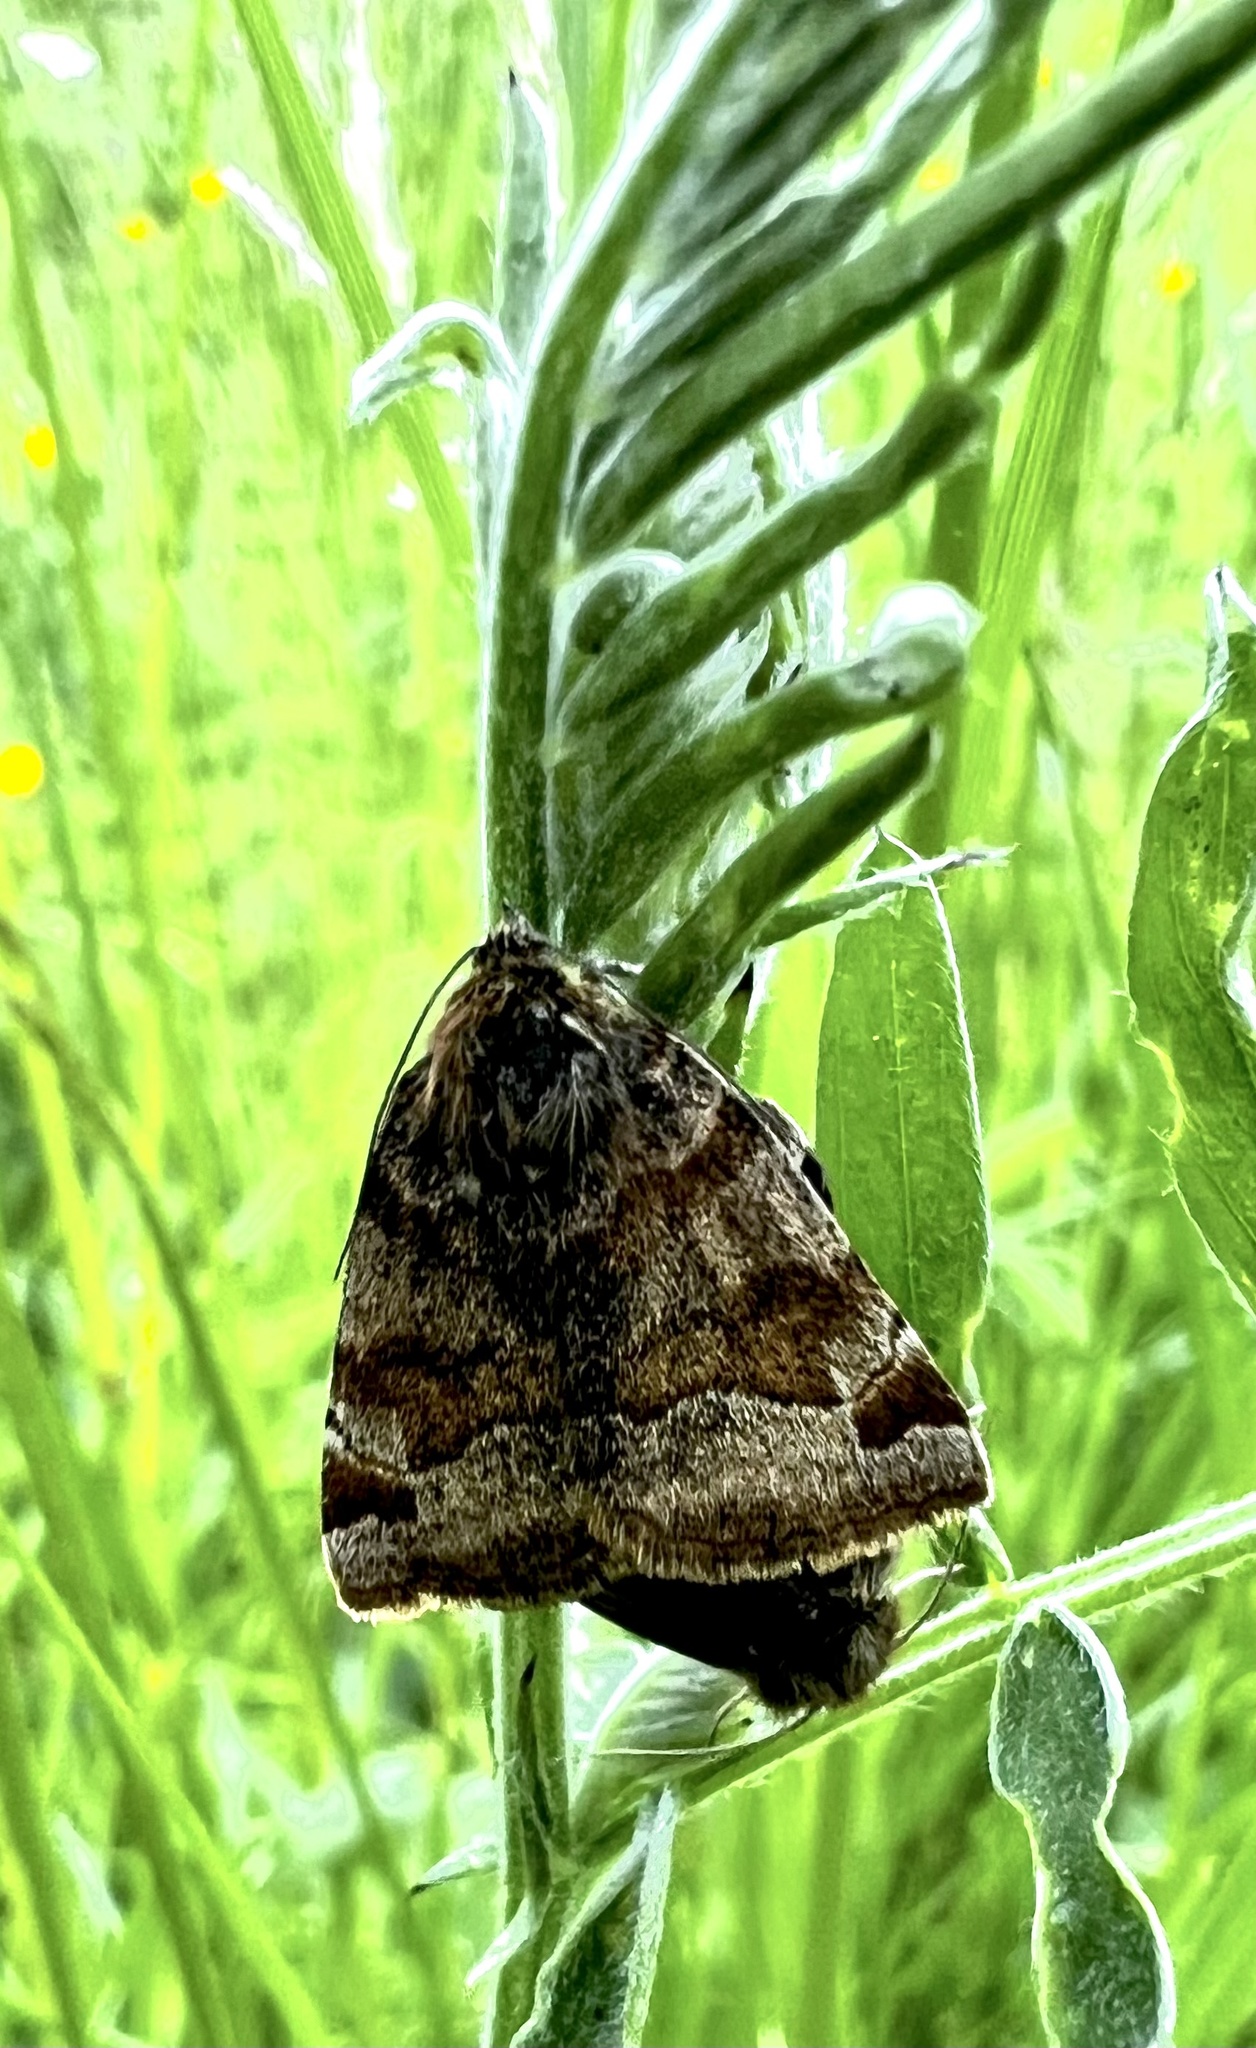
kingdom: Animalia
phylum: Arthropoda
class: Insecta
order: Lepidoptera
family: Erebidae
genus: Euclidia
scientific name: Euclidia glyphica
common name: Burnet companion
